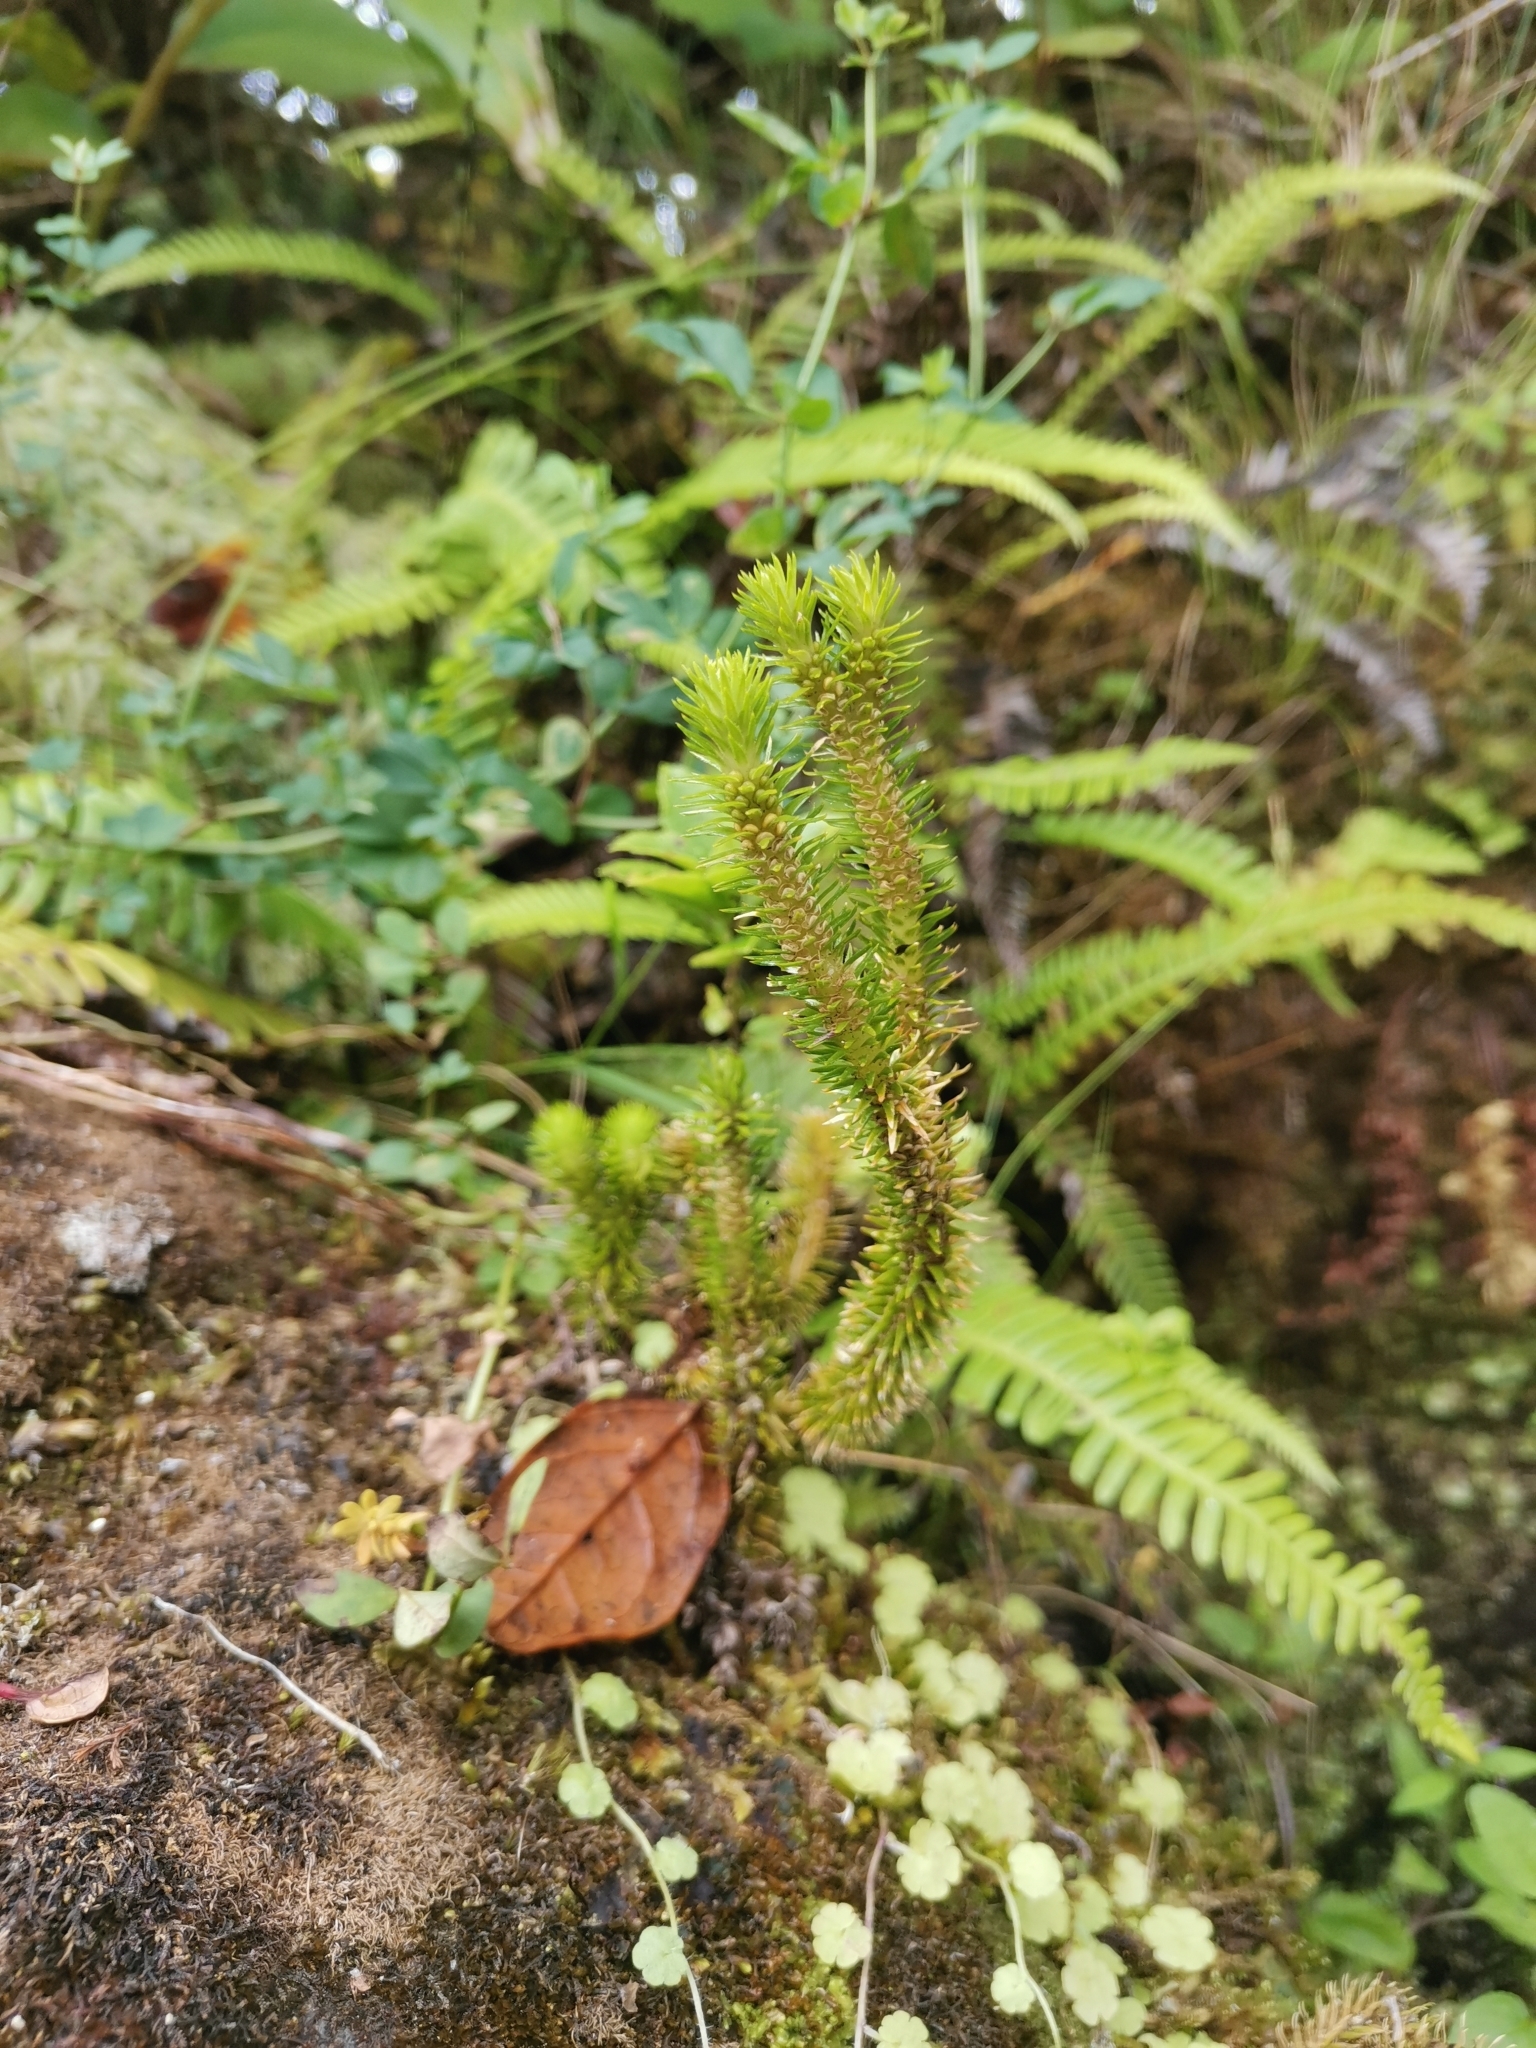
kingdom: Plantae
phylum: Tracheophyta
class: Lycopodiopsida
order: Lycopodiales
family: Lycopodiaceae
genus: Phlegmariurus
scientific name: Phlegmariurus dentatus
